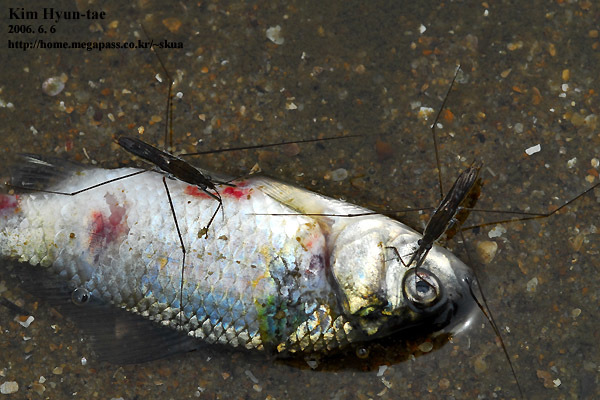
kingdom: Animalia
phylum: Arthropoda
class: Insecta
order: Hemiptera
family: Gerridae
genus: Aquarius
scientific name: Aquarius paludum
